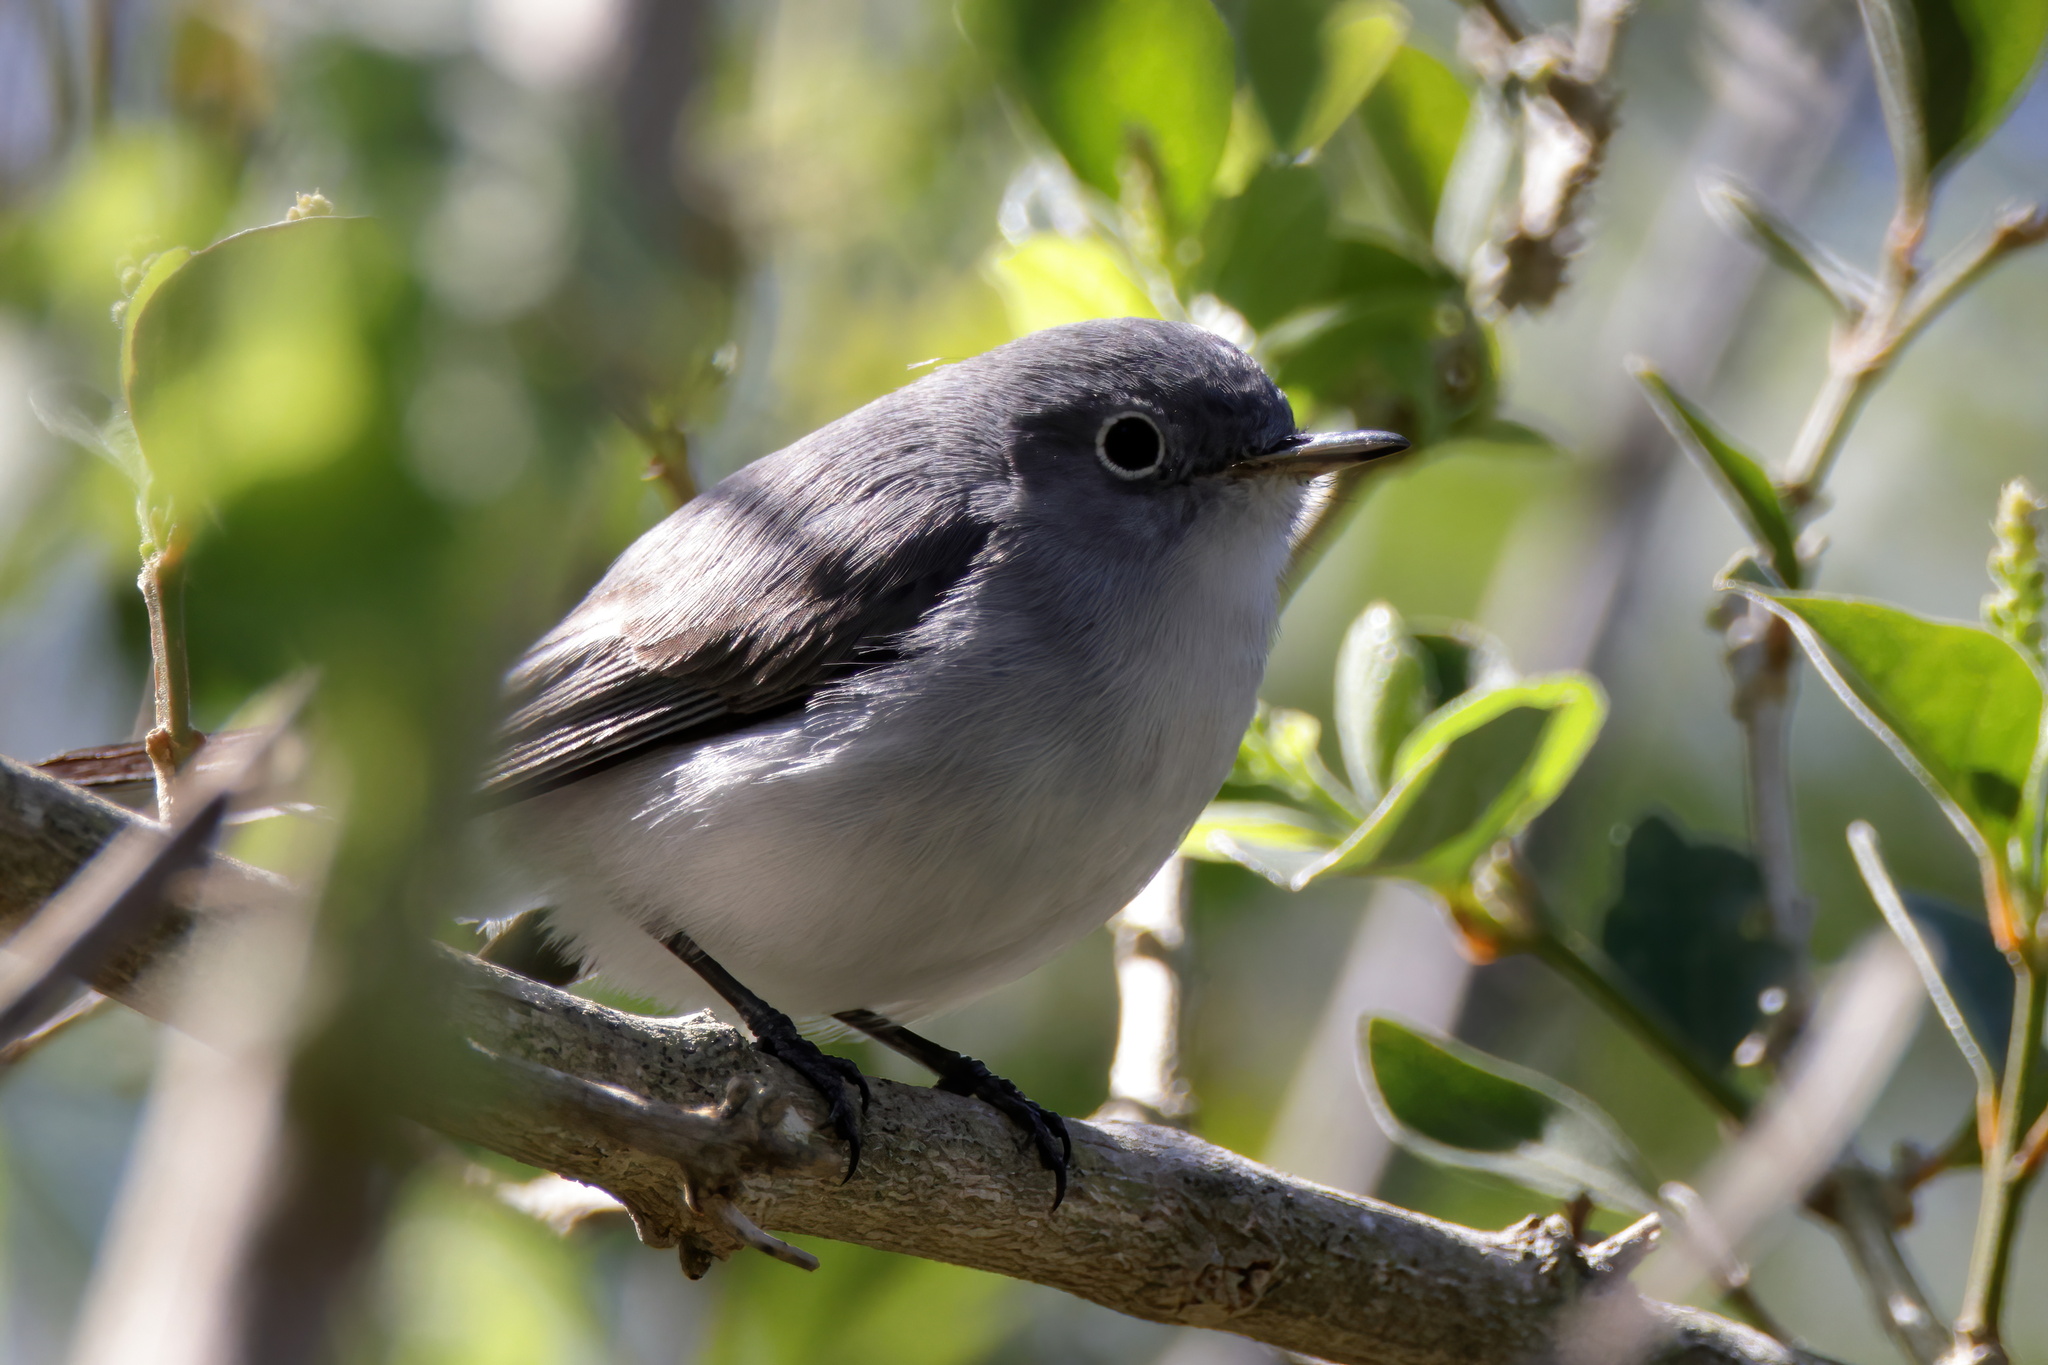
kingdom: Animalia
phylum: Chordata
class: Aves
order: Passeriformes
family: Polioptilidae
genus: Polioptila
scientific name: Polioptila caerulea
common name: Blue-gray gnatcatcher
